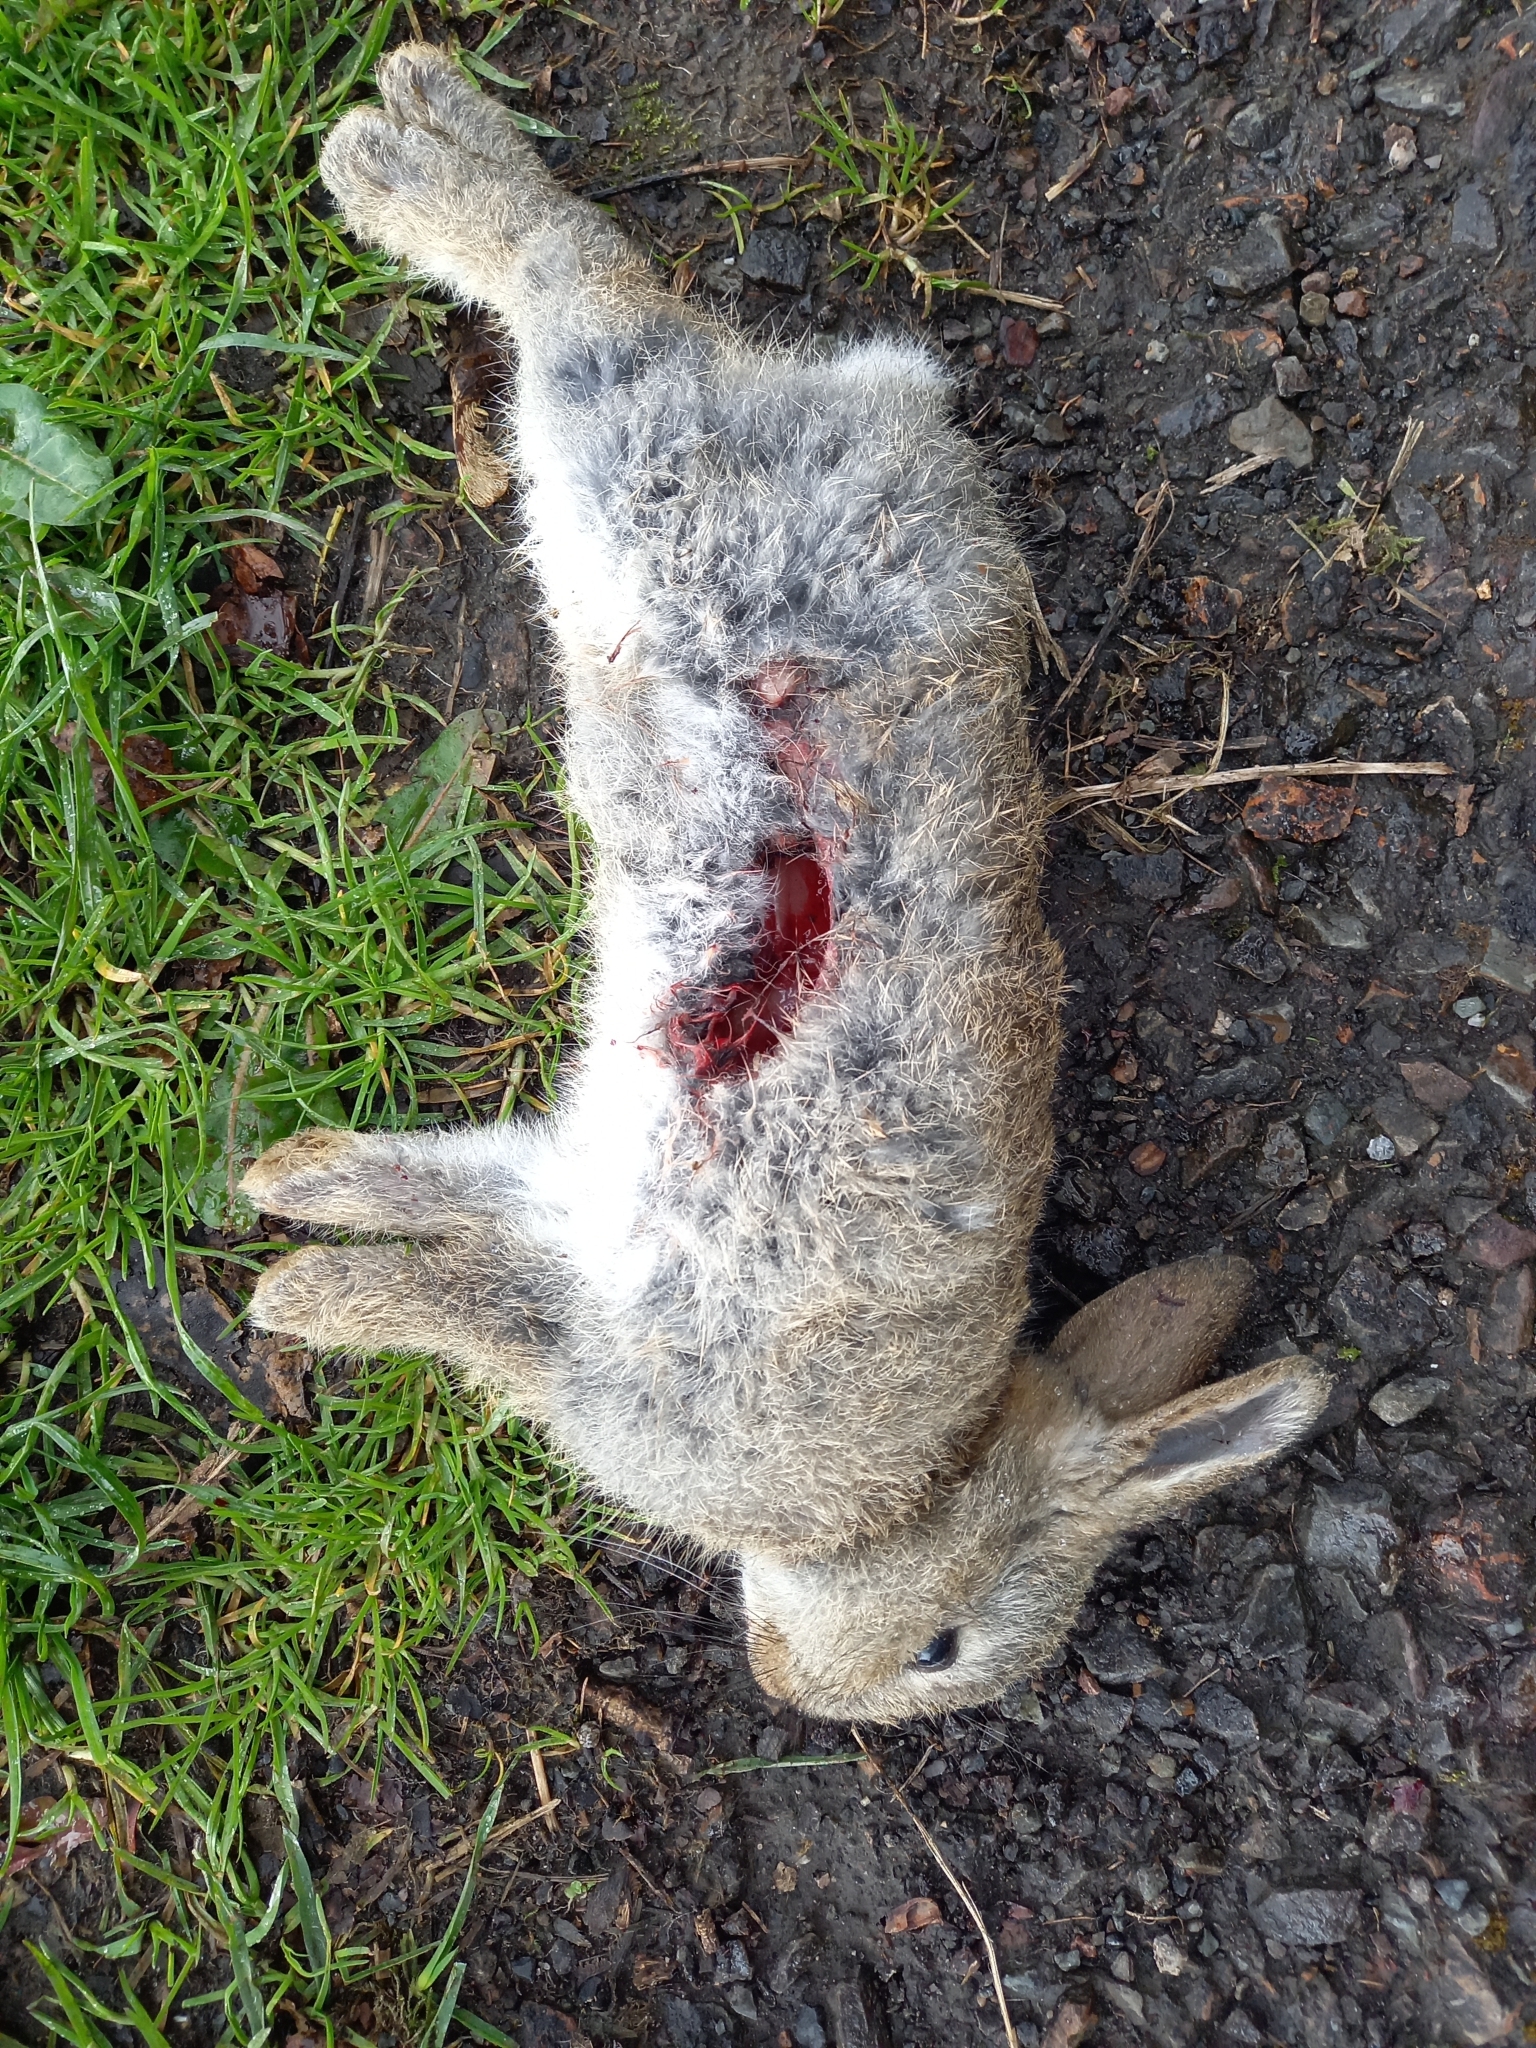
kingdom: Animalia
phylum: Chordata
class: Mammalia
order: Lagomorpha
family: Leporidae
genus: Oryctolagus
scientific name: Oryctolagus cuniculus
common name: European rabbit
